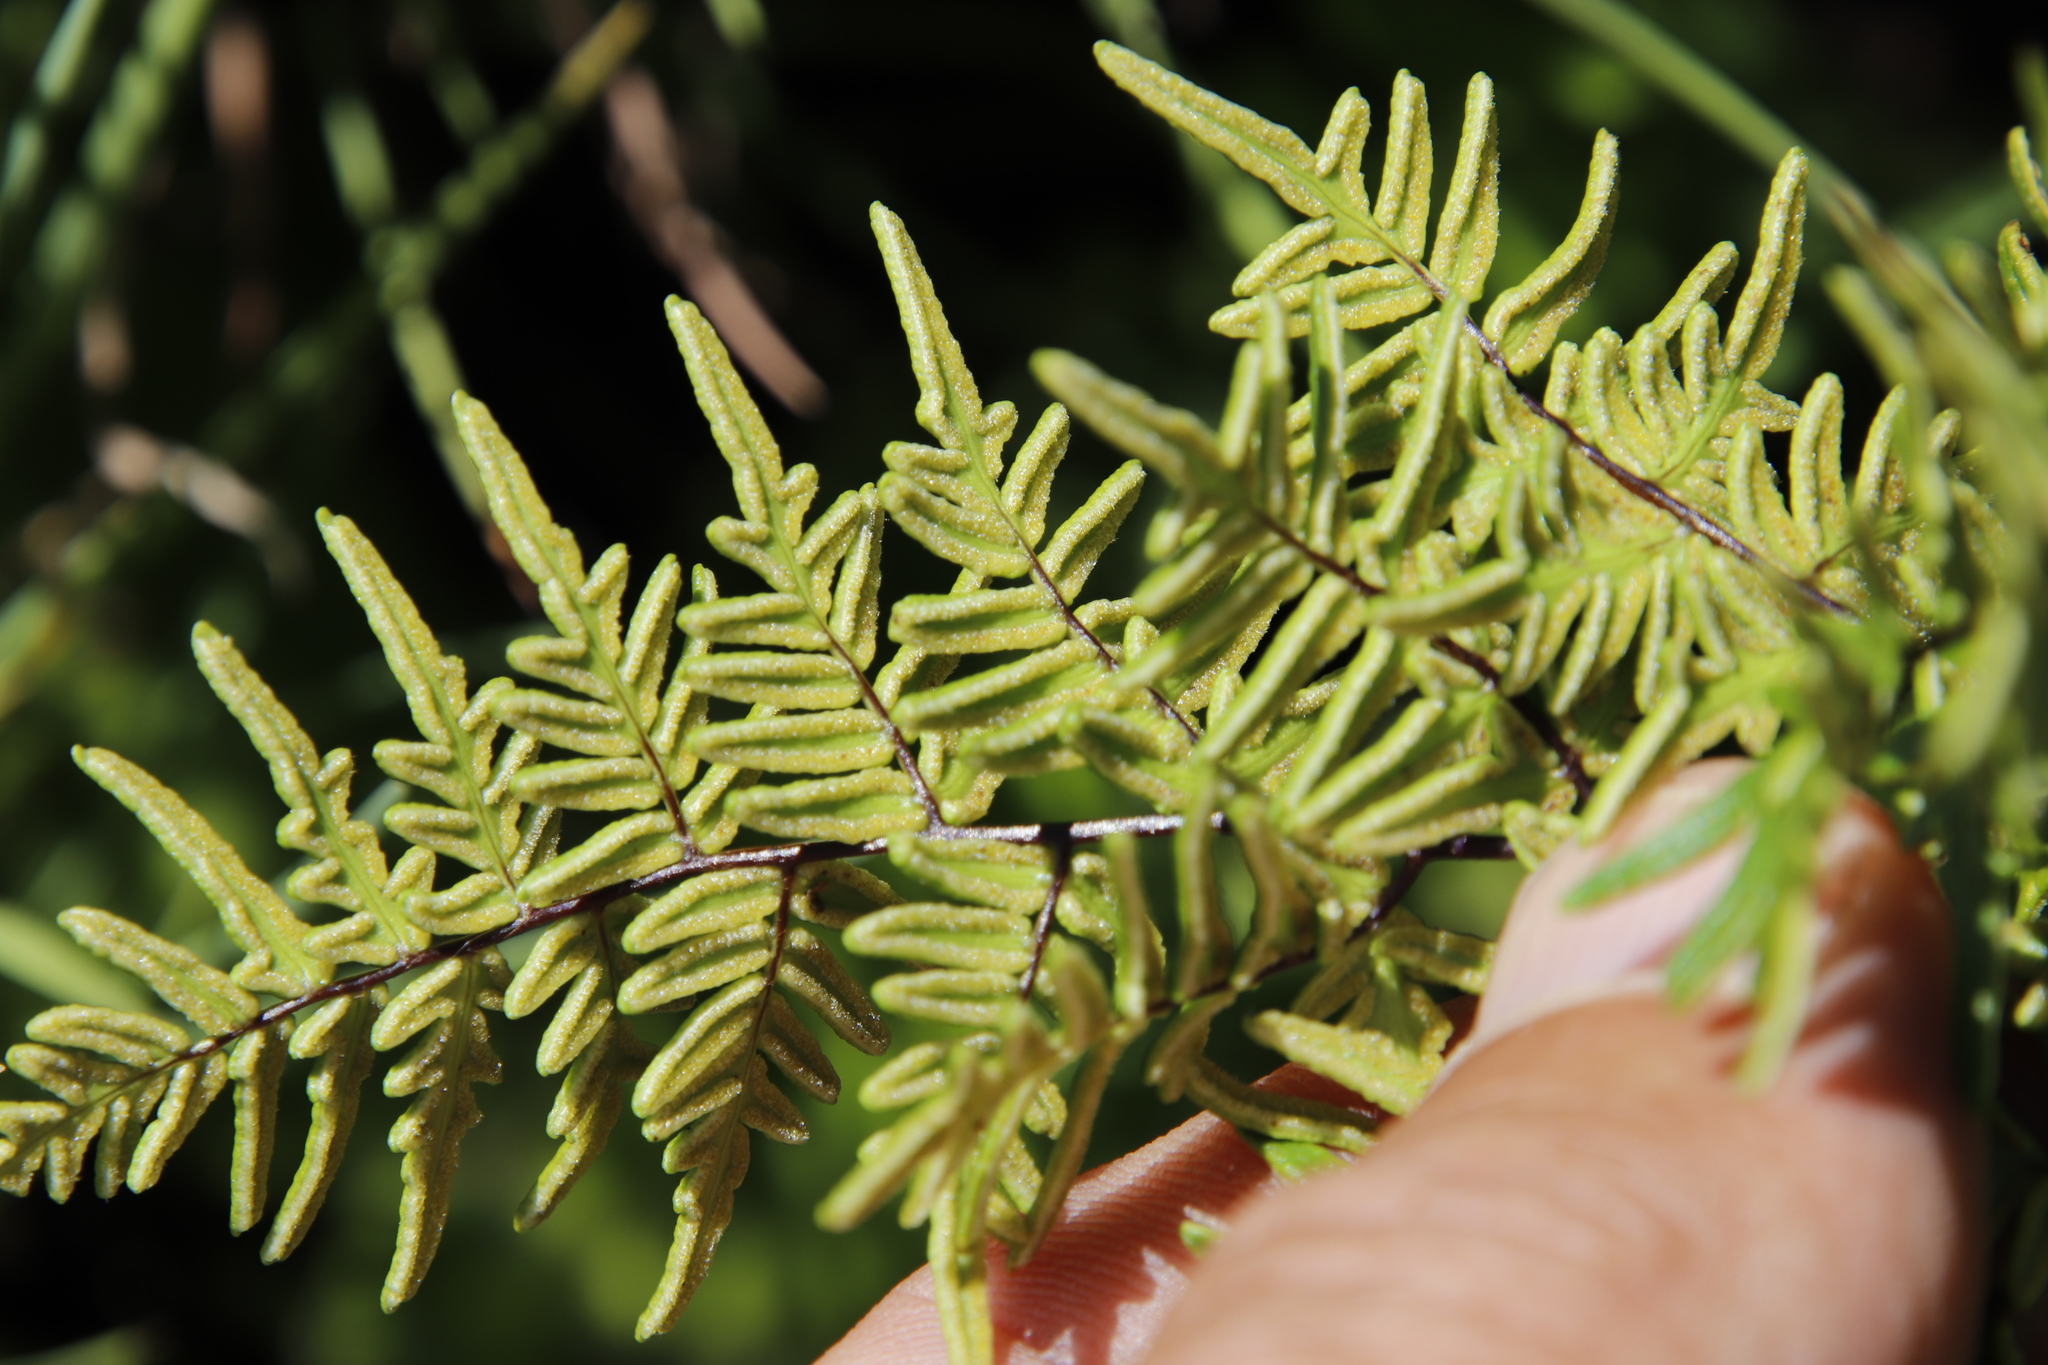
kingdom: Plantae
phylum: Tracheophyta
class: Polypodiopsida
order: Polypodiales
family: Pteridaceae
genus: Cheilanthes
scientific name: Cheilanthes quadripinnata
